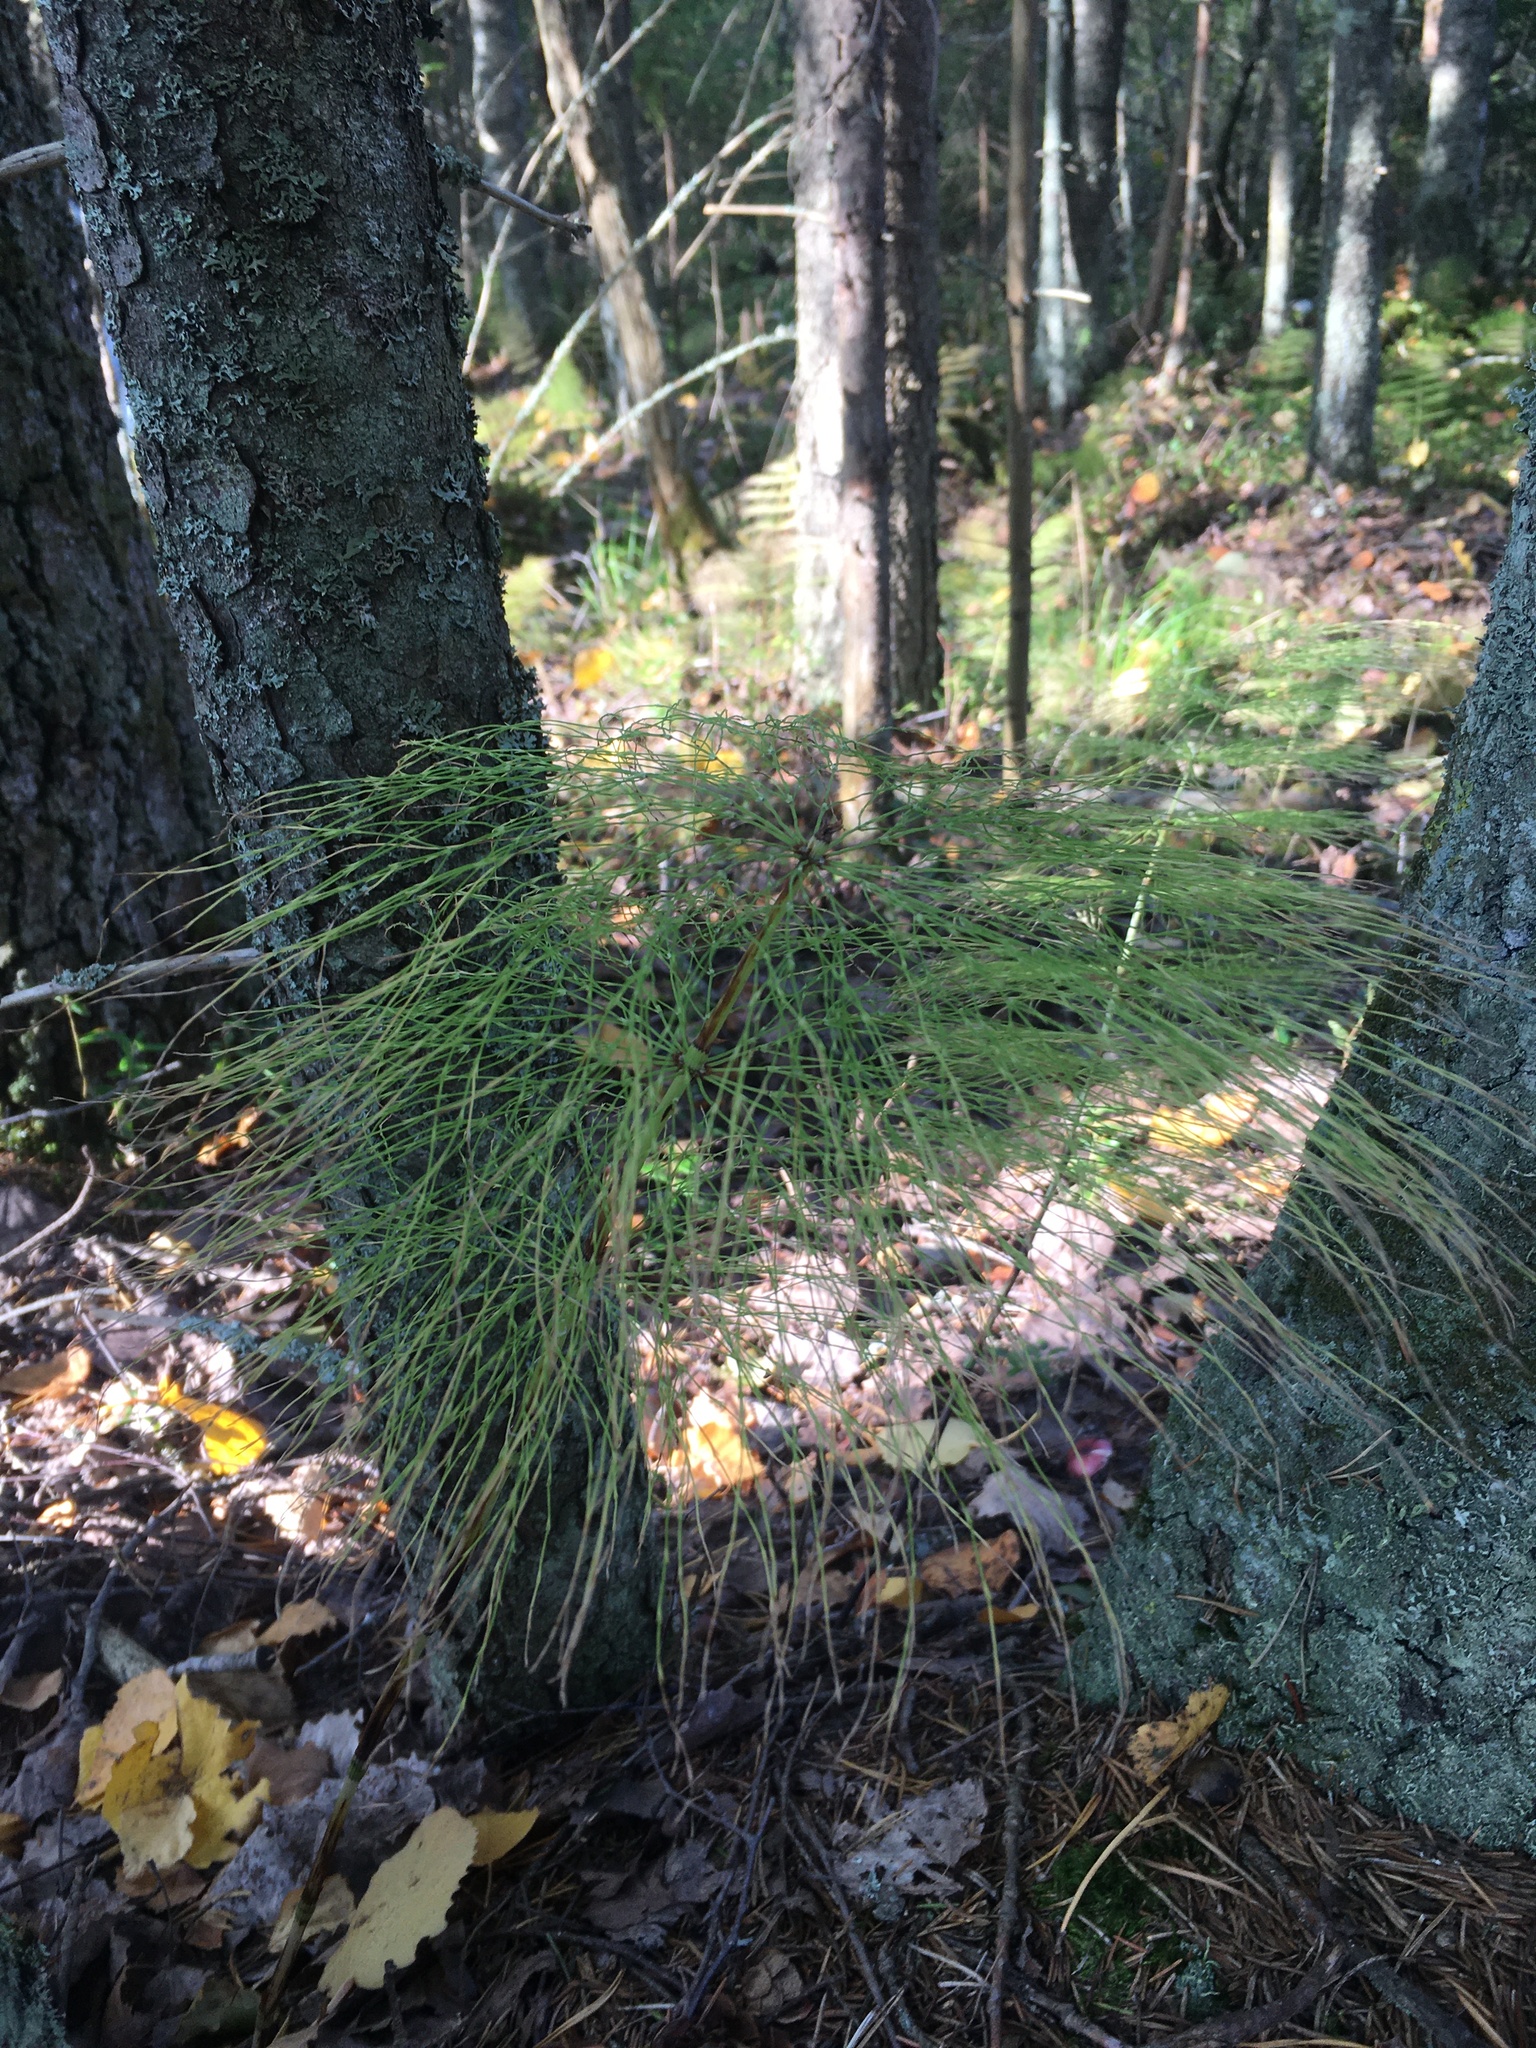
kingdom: Plantae
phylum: Tracheophyta
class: Polypodiopsida
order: Equisetales
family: Equisetaceae
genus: Equisetum
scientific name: Equisetum sylvaticum
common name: Wood horsetail
